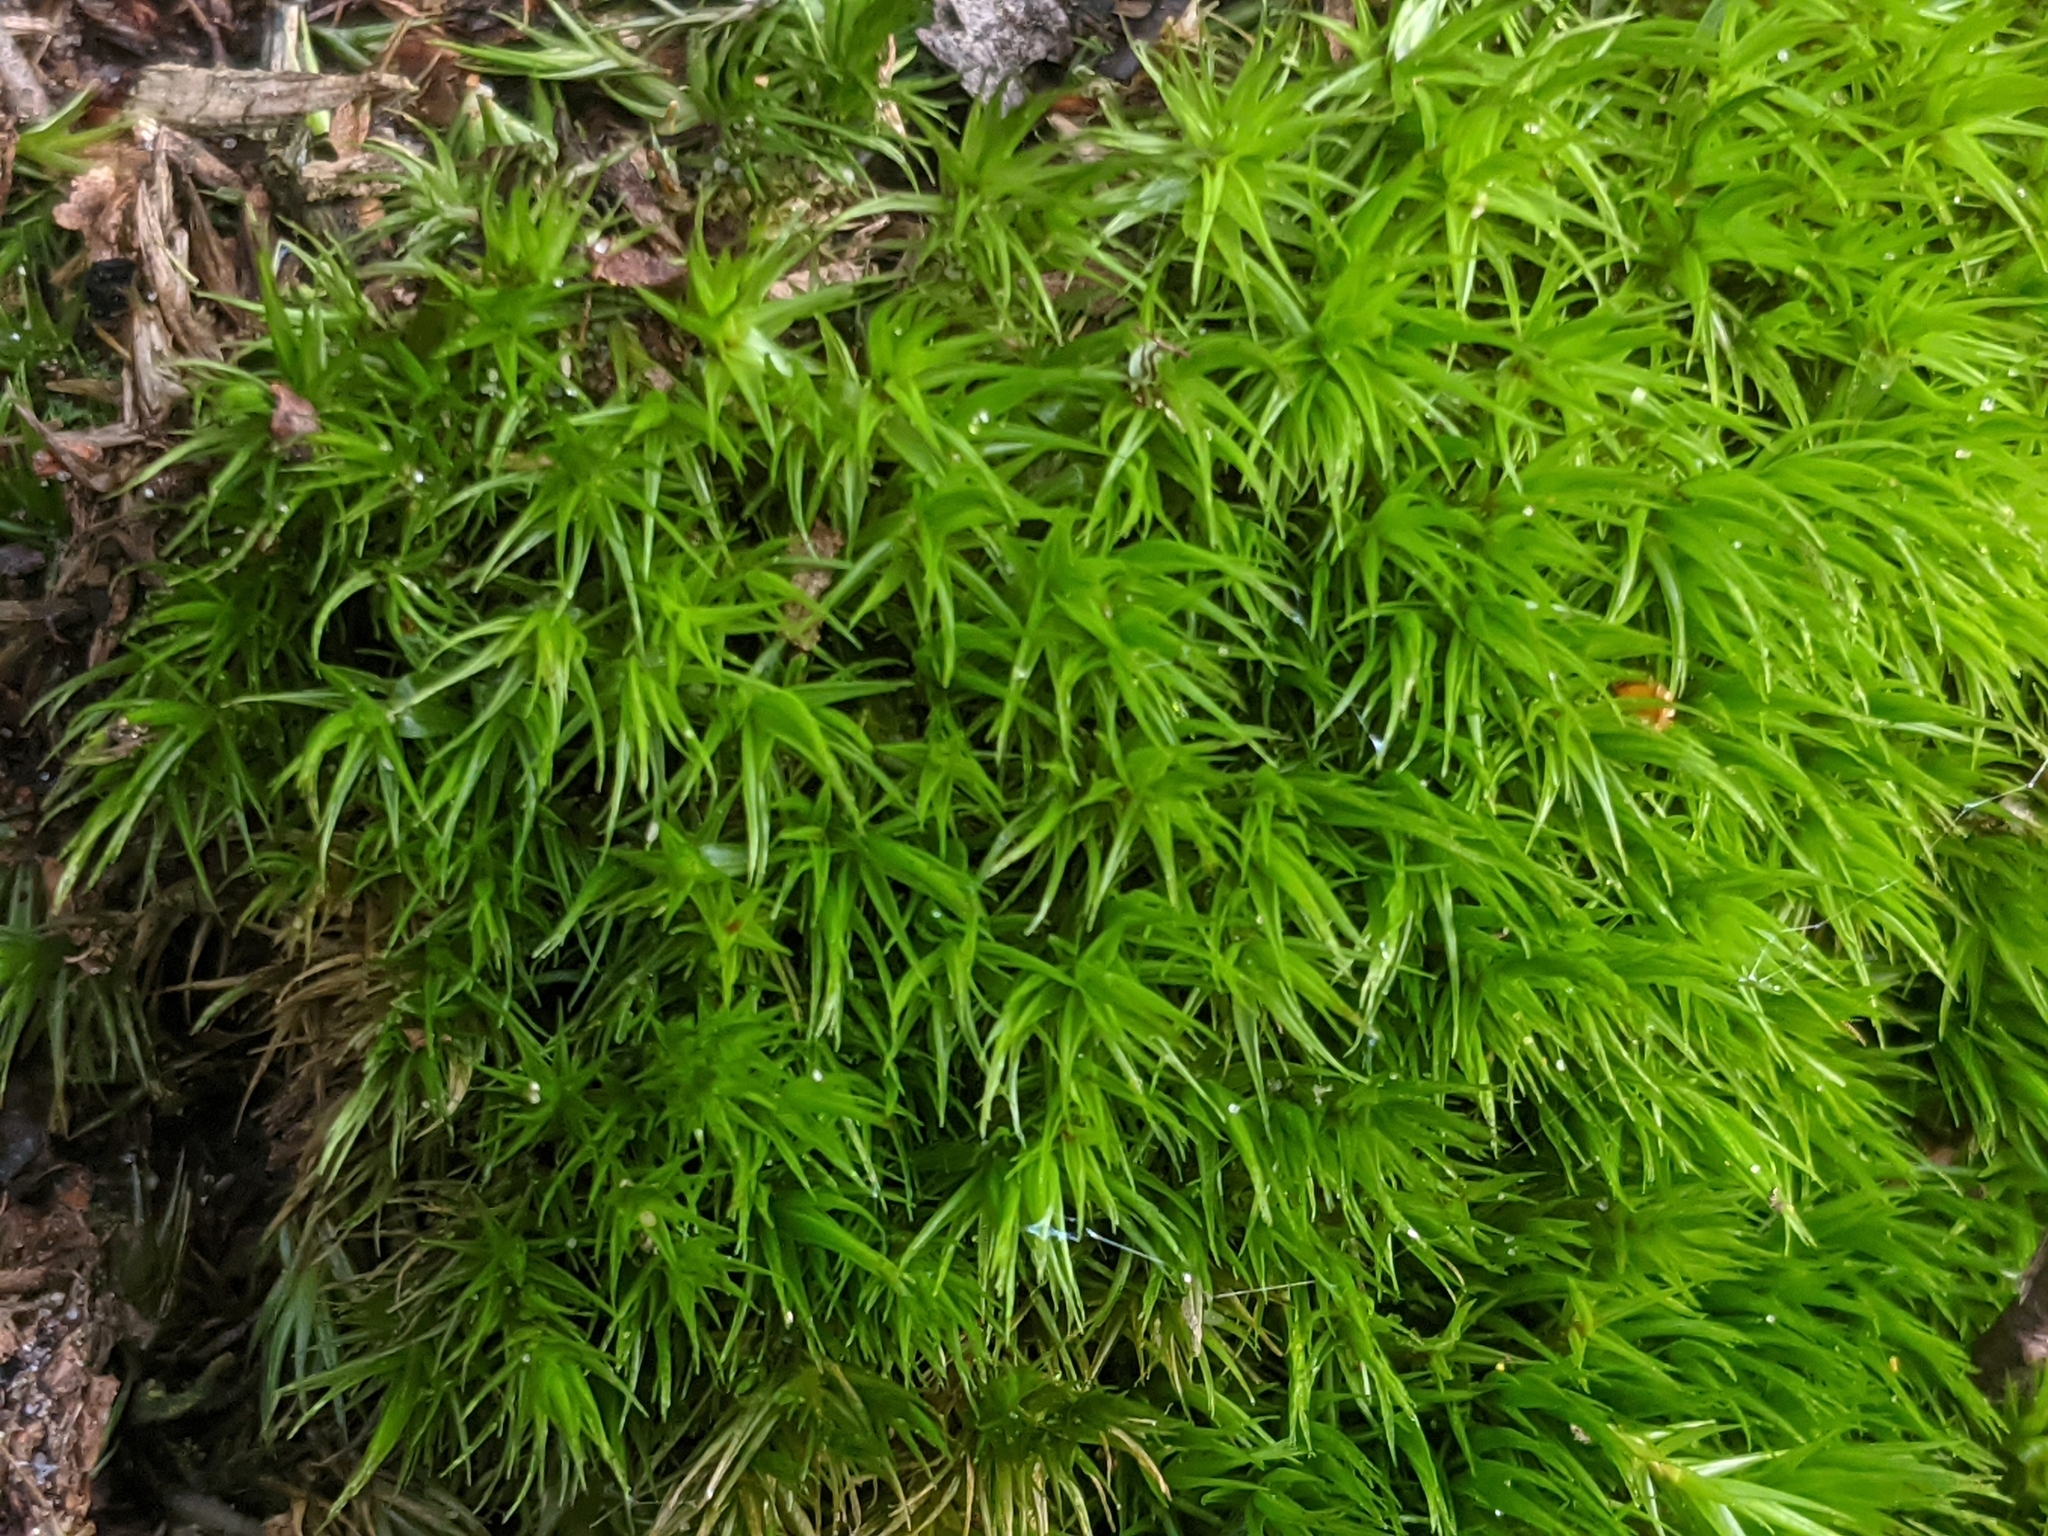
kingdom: Plantae
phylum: Bryophyta
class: Bryopsida
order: Dicranales
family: Dicranaceae
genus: Dicranum
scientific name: Dicranum scoparium
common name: Broom fork-moss
